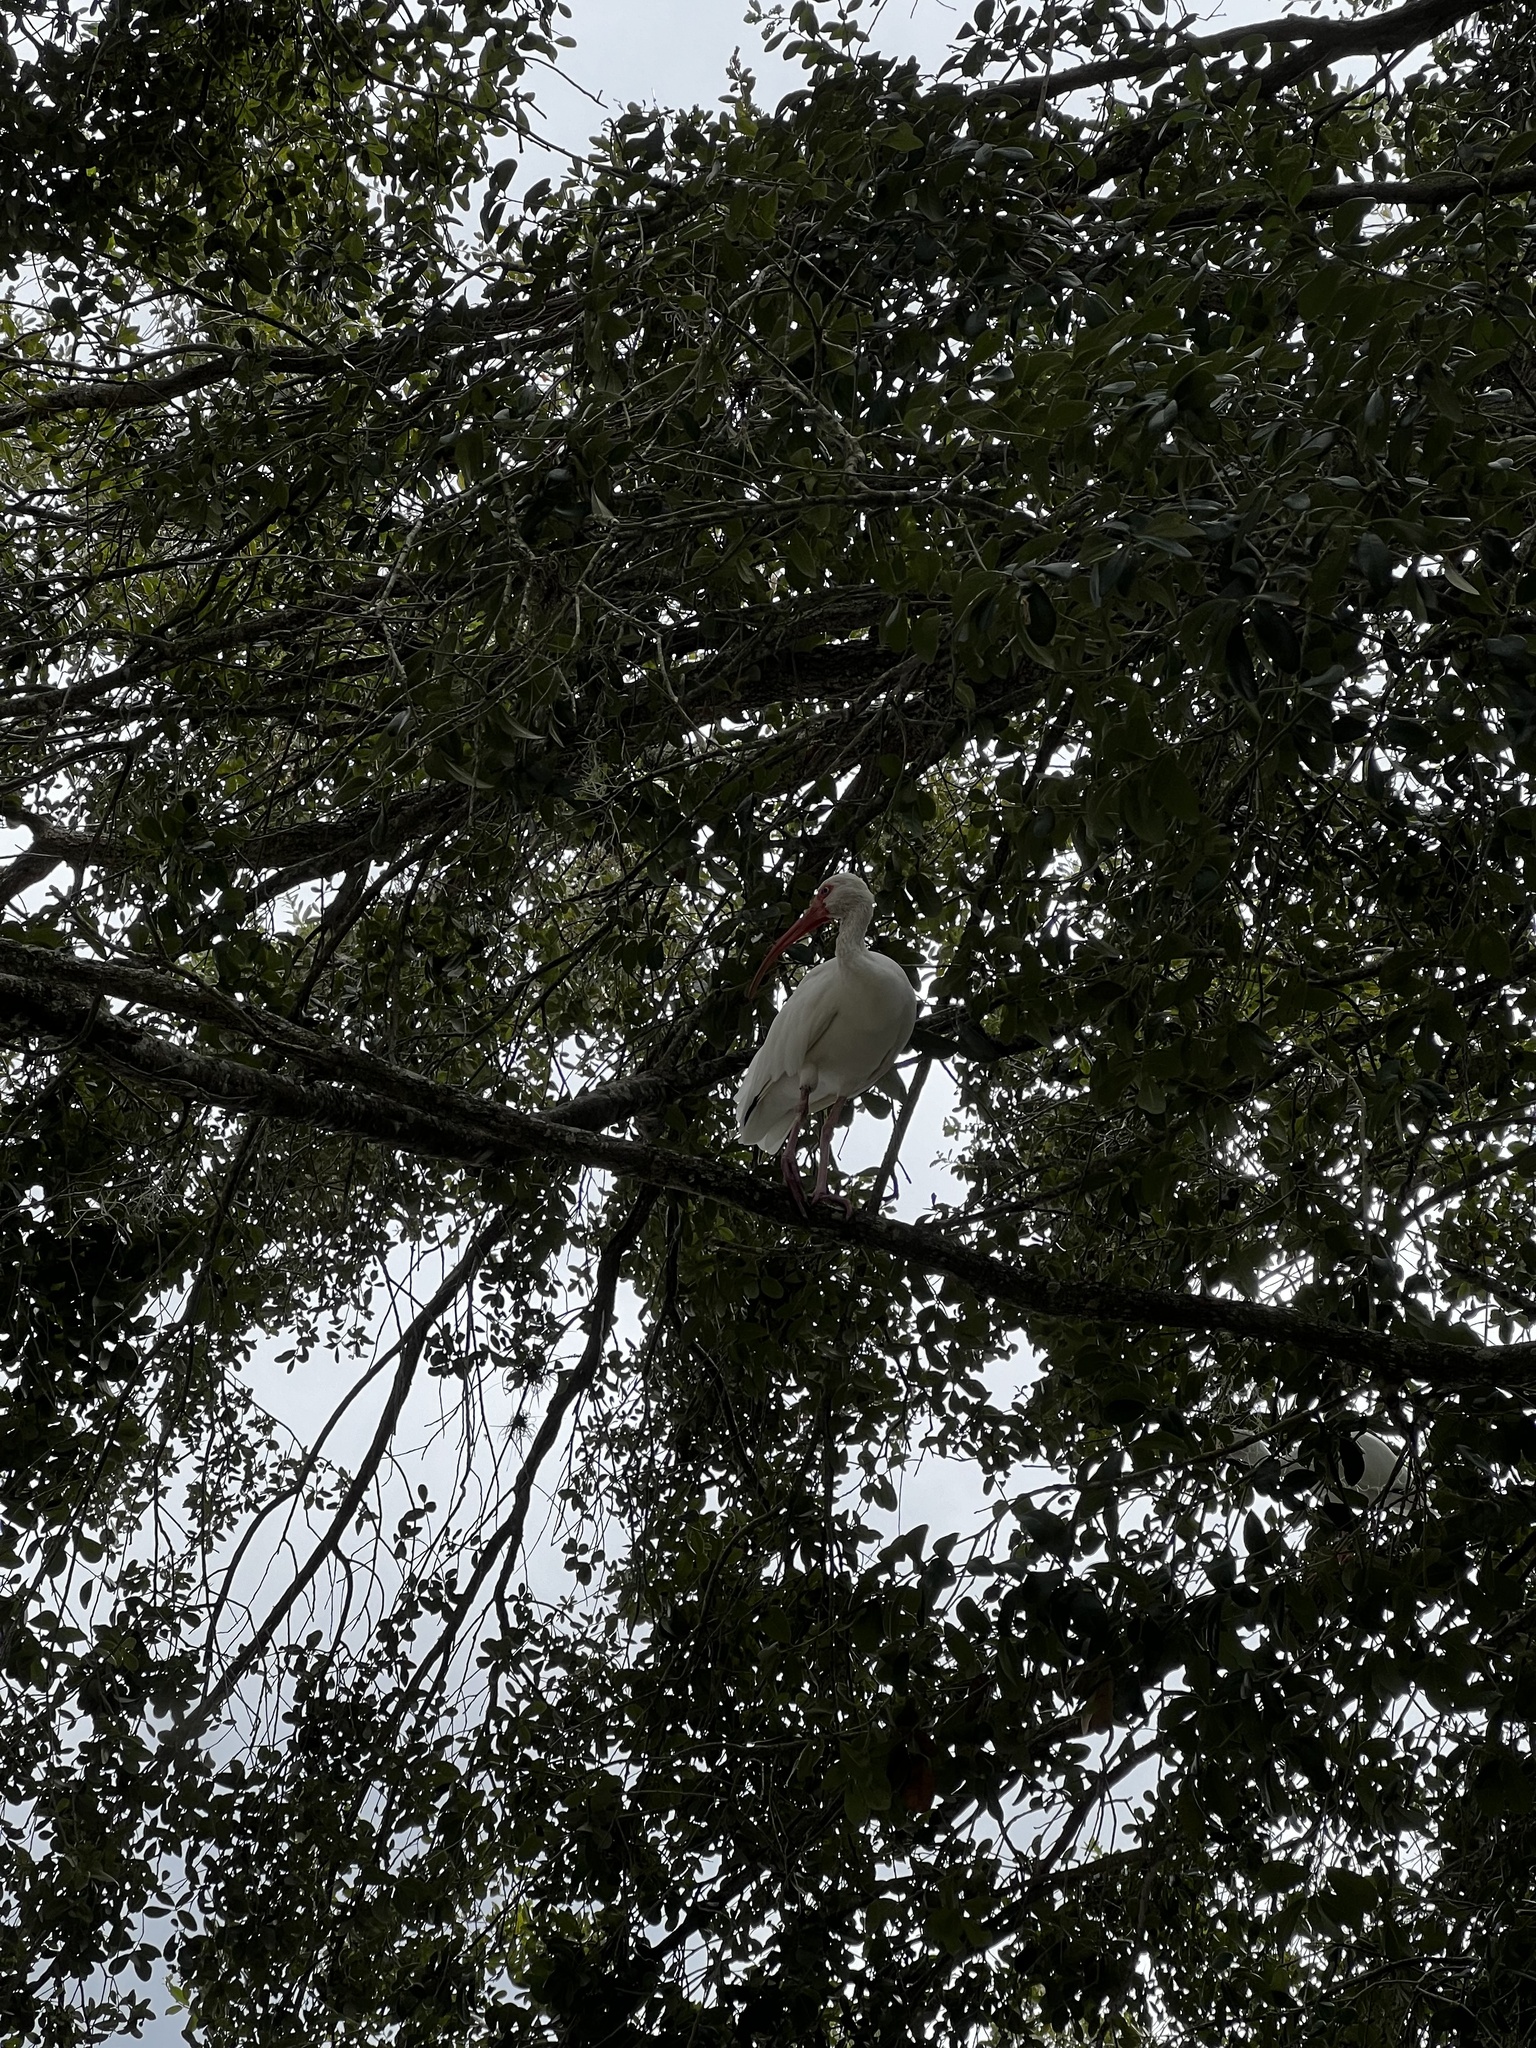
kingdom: Animalia
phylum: Chordata
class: Aves
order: Pelecaniformes
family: Threskiornithidae
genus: Eudocimus
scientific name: Eudocimus albus
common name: White ibis
